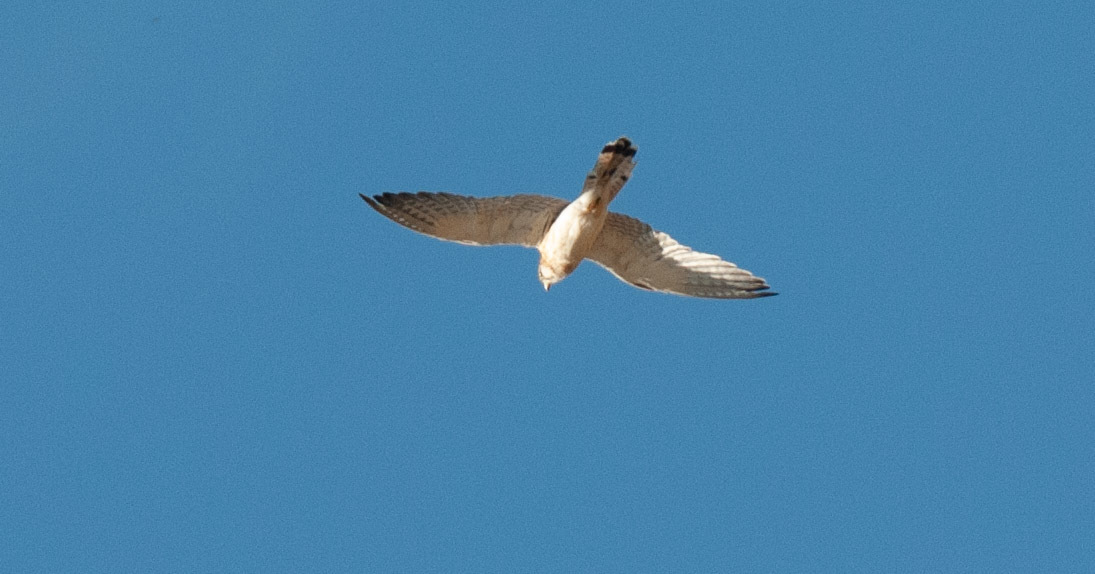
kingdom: Animalia
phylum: Chordata
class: Aves
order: Falconiformes
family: Falconidae
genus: Falco
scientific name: Falco cenchroides
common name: Nankeen kestrel
